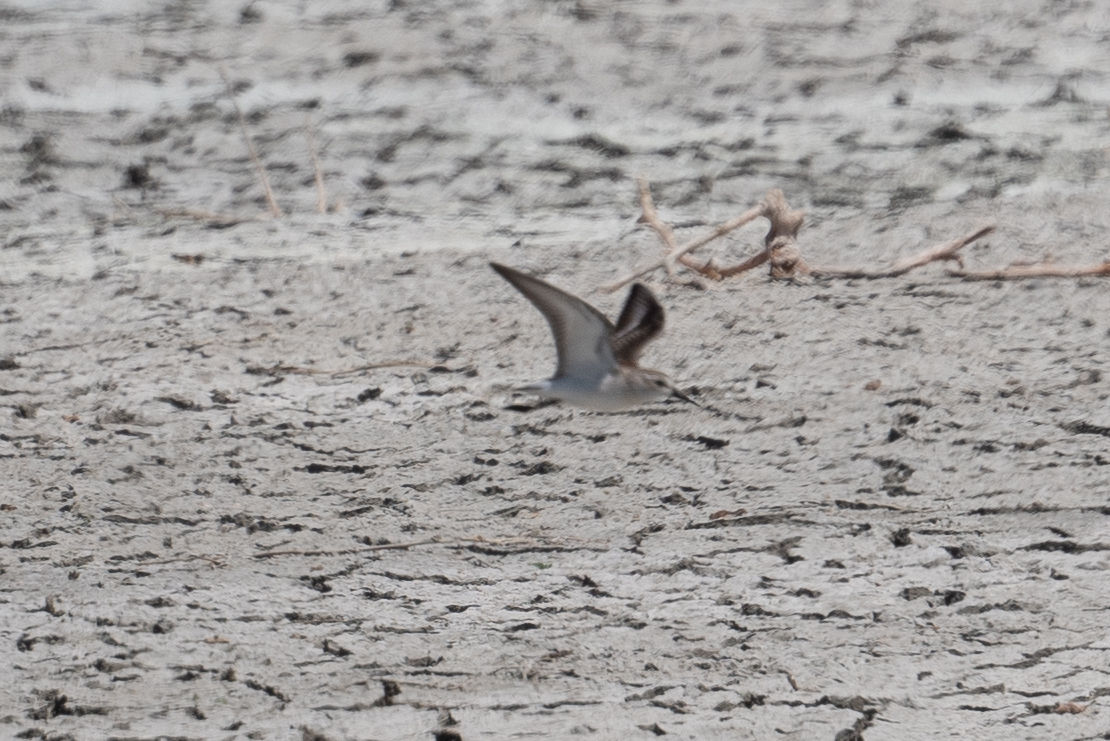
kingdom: Animalia
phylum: Chordata
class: Aves
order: Charadriiformes
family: Scolopacidae
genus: Calidris
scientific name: Calidris
